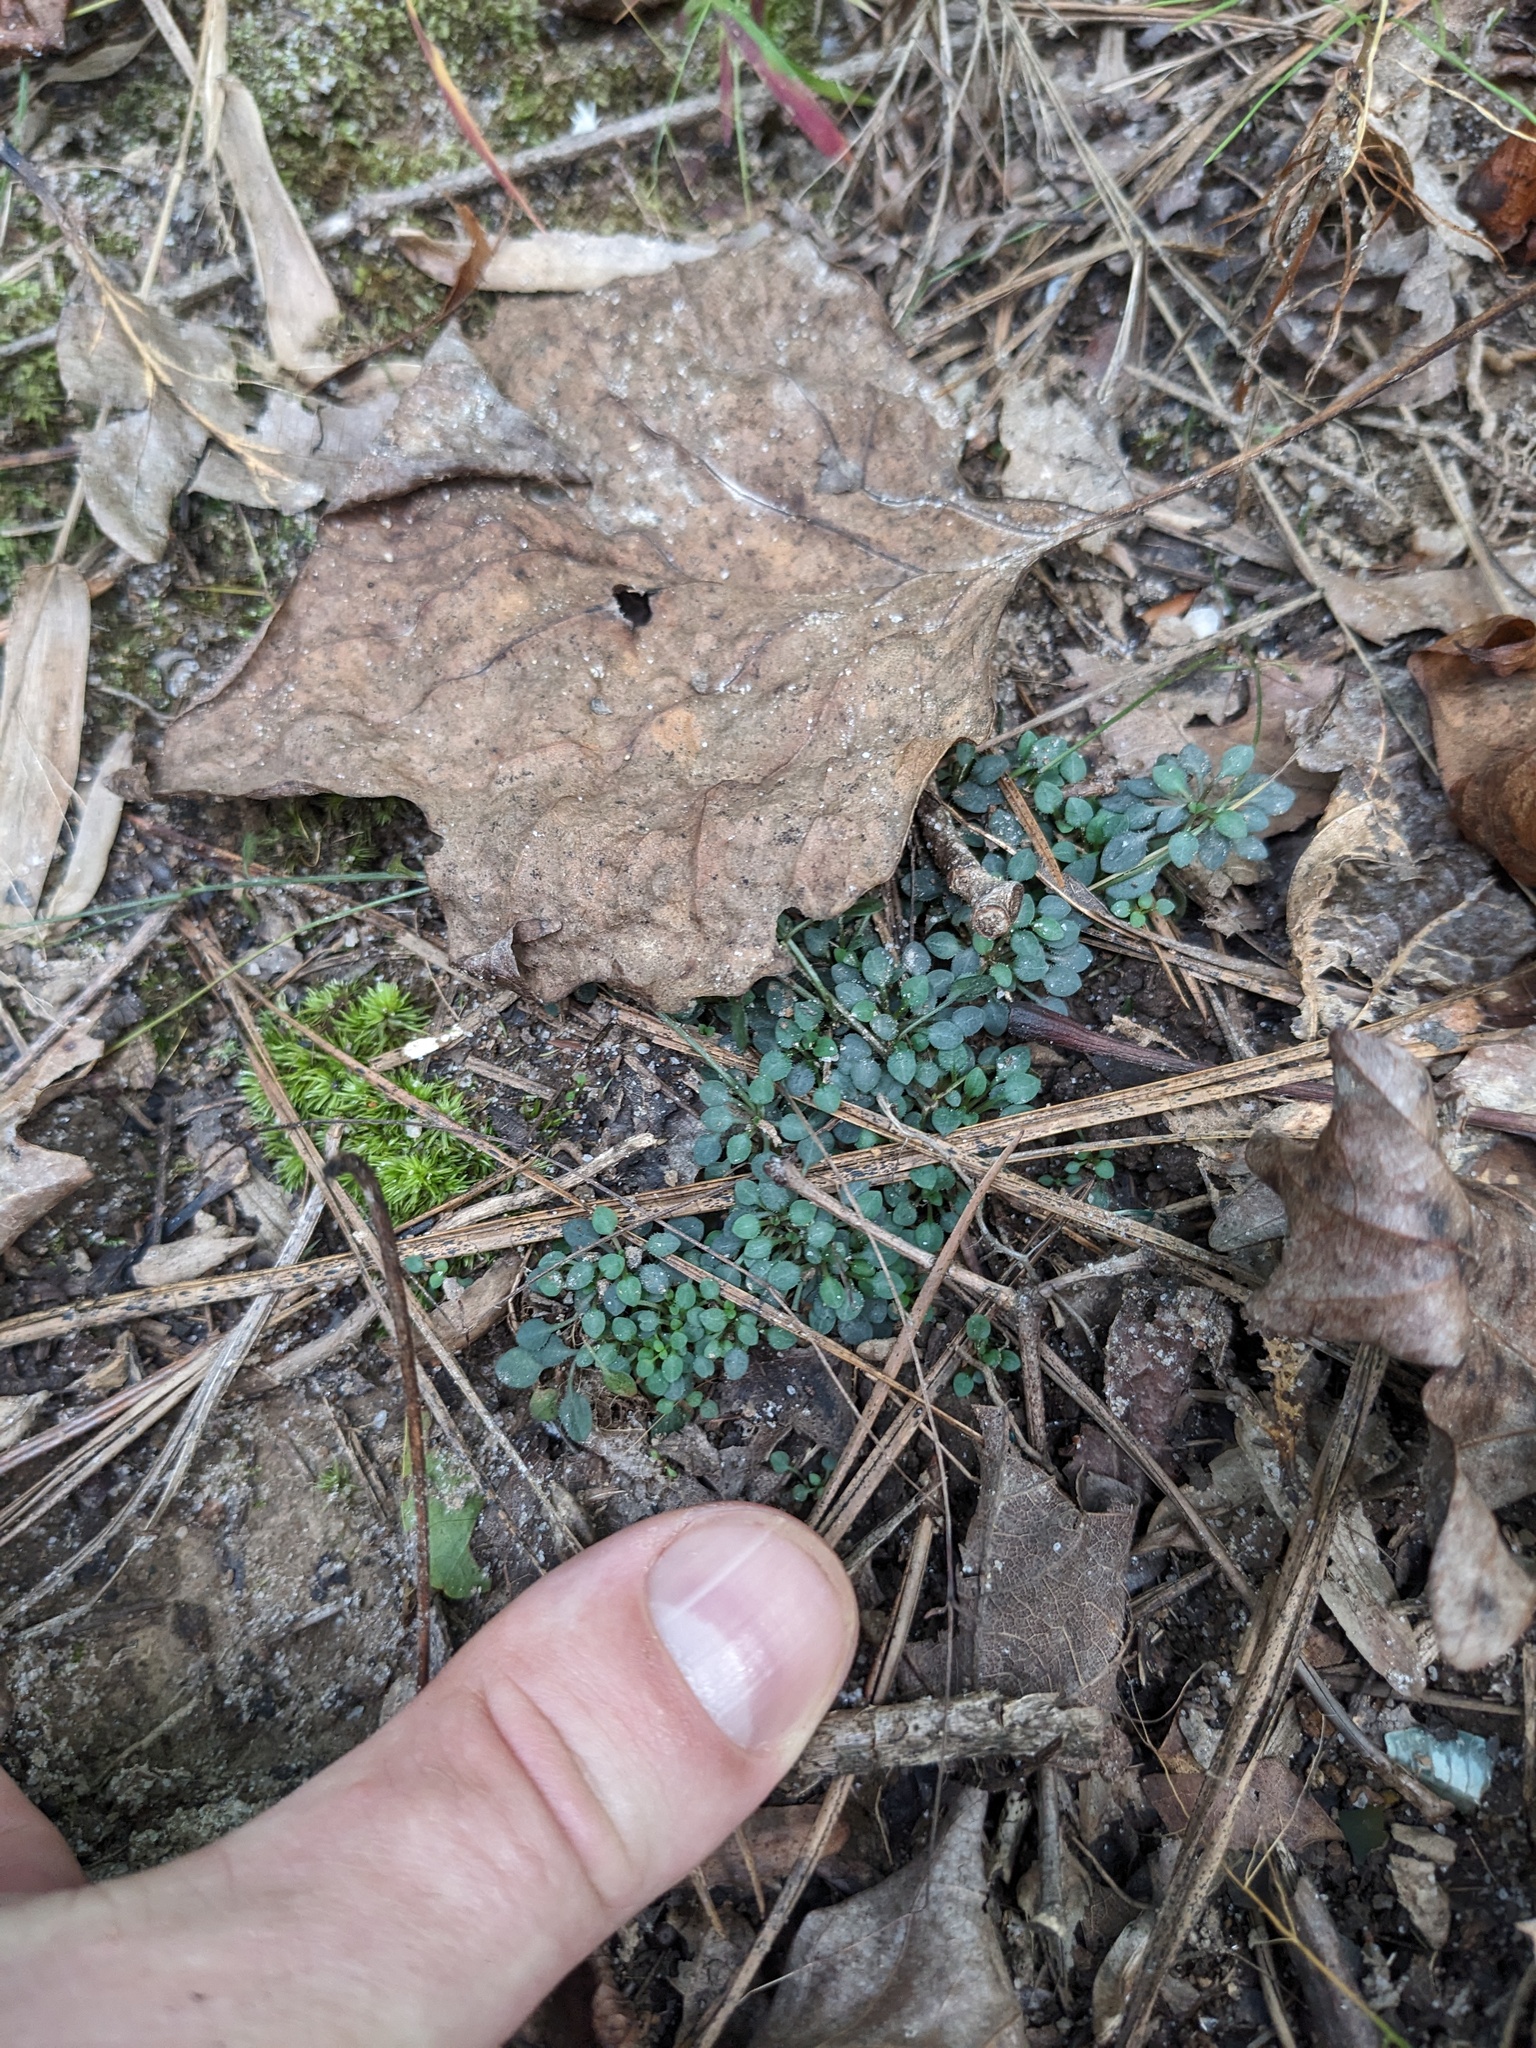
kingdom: Plantae
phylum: Tracheophyta
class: Magnoliopsida
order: Gentianales
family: Rubiaceae
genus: Houstonia
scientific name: Houstonia caerulea
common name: Bluets
